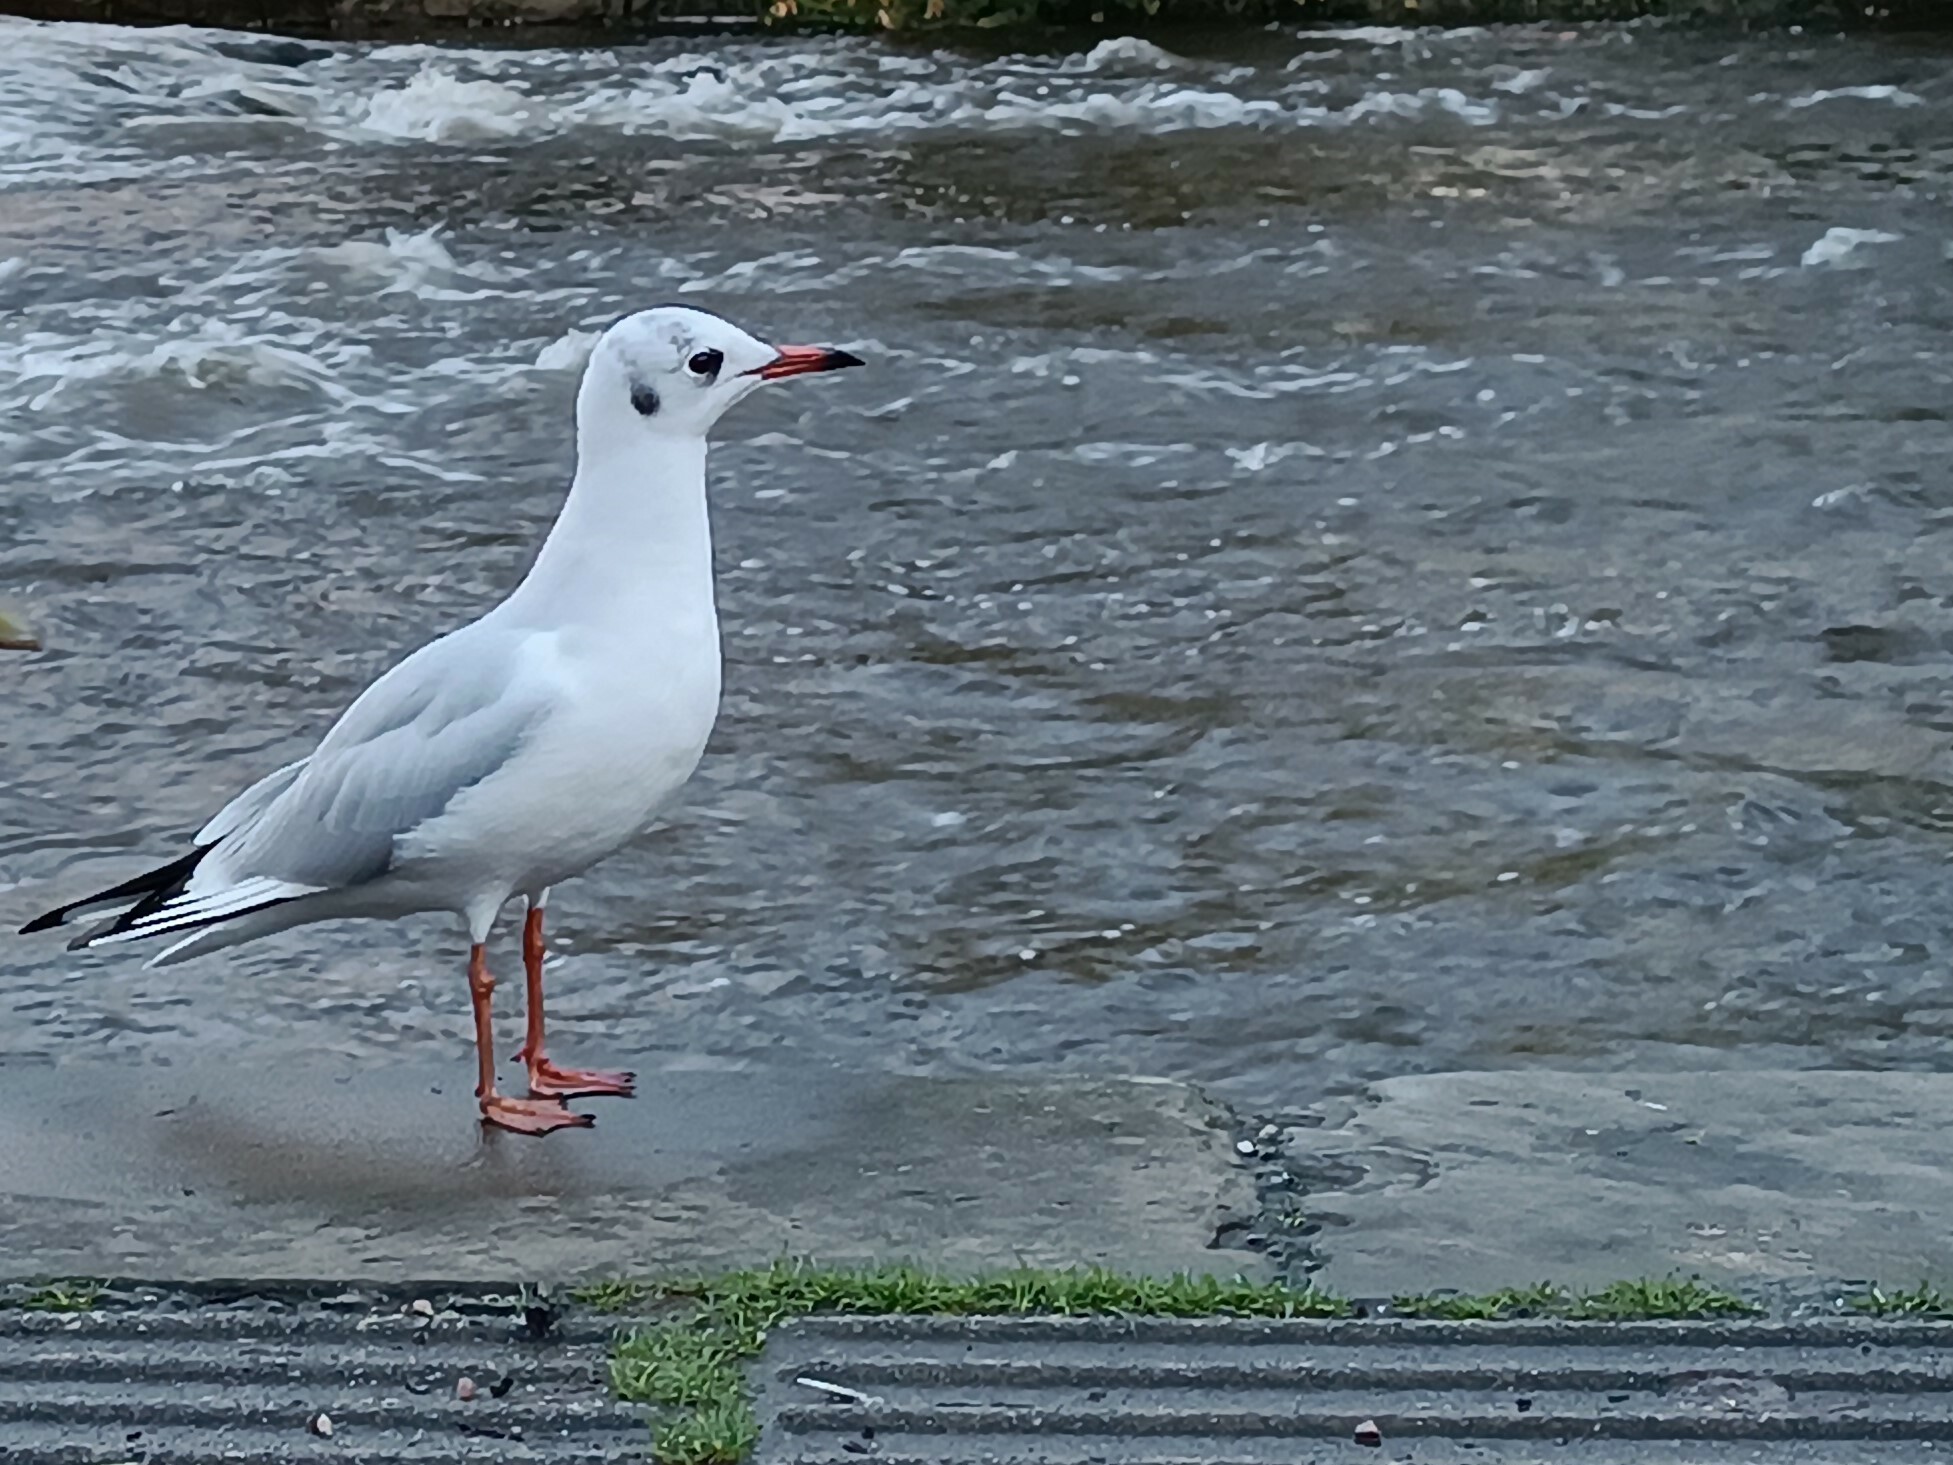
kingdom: Animalia
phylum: Chordata
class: Aves
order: Charadriiformes
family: Laridae
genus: Chroicocephalus
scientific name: Chroicocephalus ridibundus
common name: Black-headed gull
